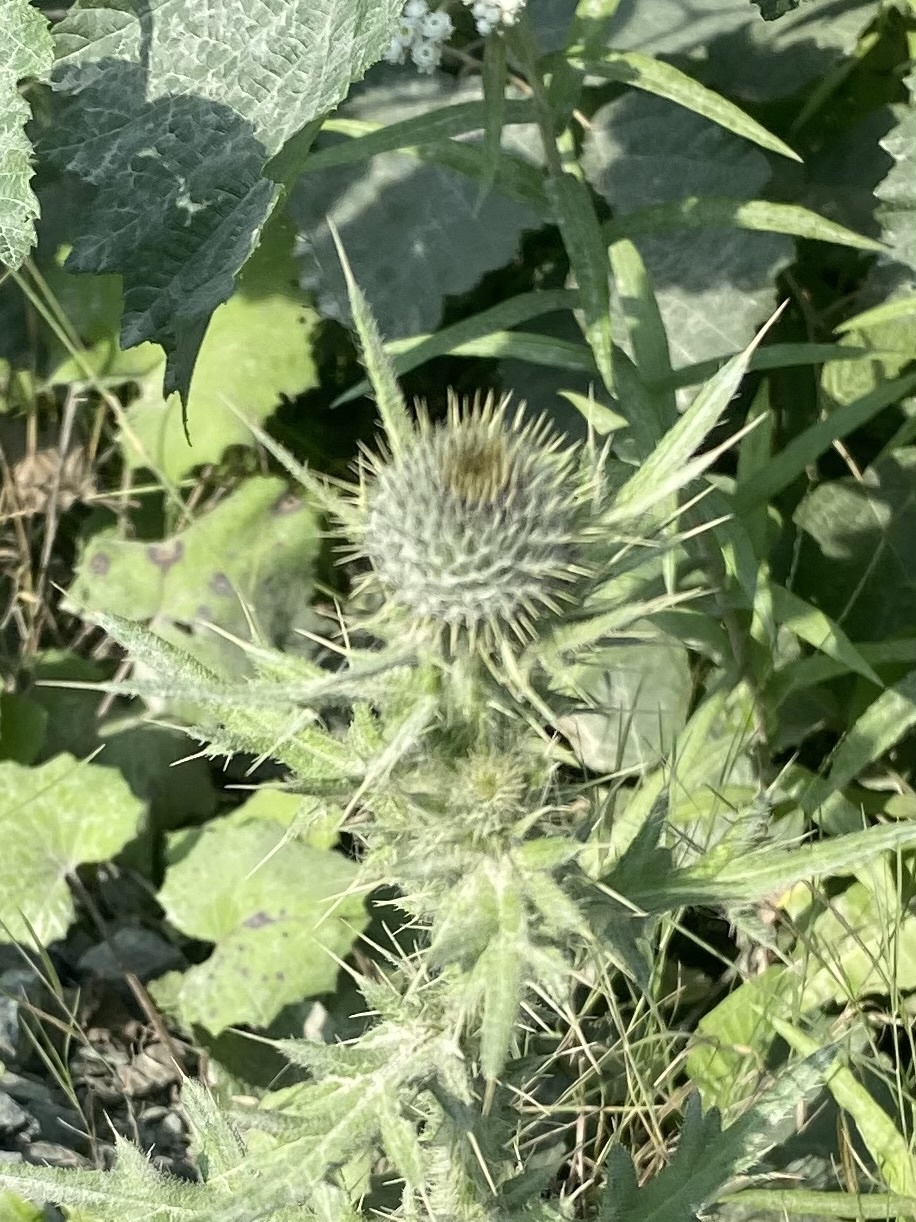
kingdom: Plantae
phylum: Tracheophyta
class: Magnoliopsida
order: Asterales
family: Asteraceae
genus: Cirsium
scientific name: Cirsium vulgare
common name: Bull thistle
